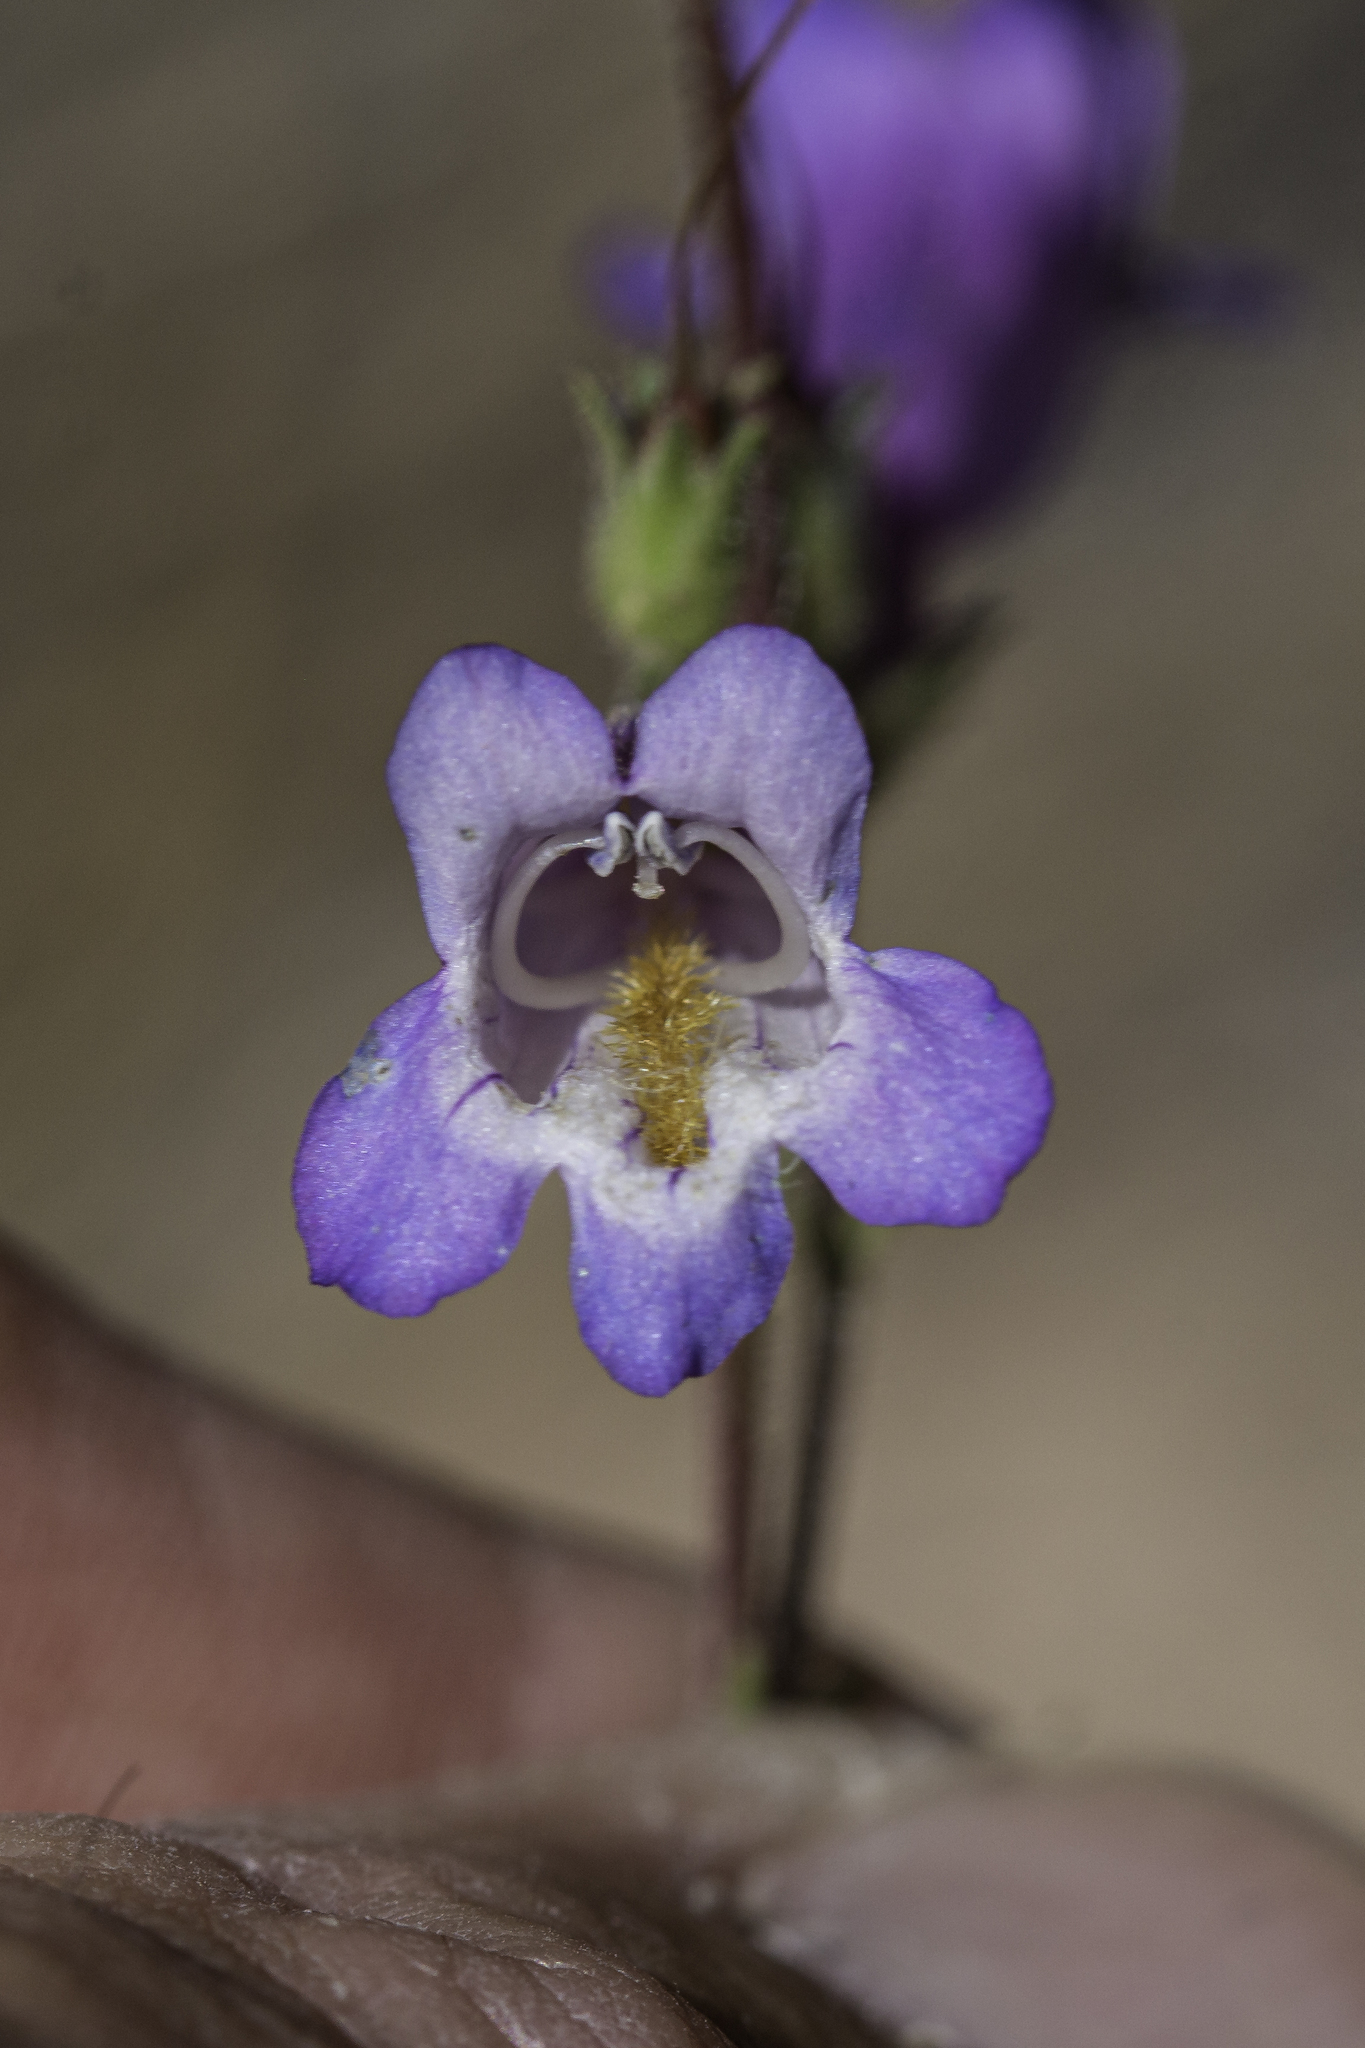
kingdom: Plantae
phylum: Tracheophyta
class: Magnoliopsida
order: Lamiales
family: Plantaginaceae
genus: Penstemon
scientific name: Penstemon inflatus
